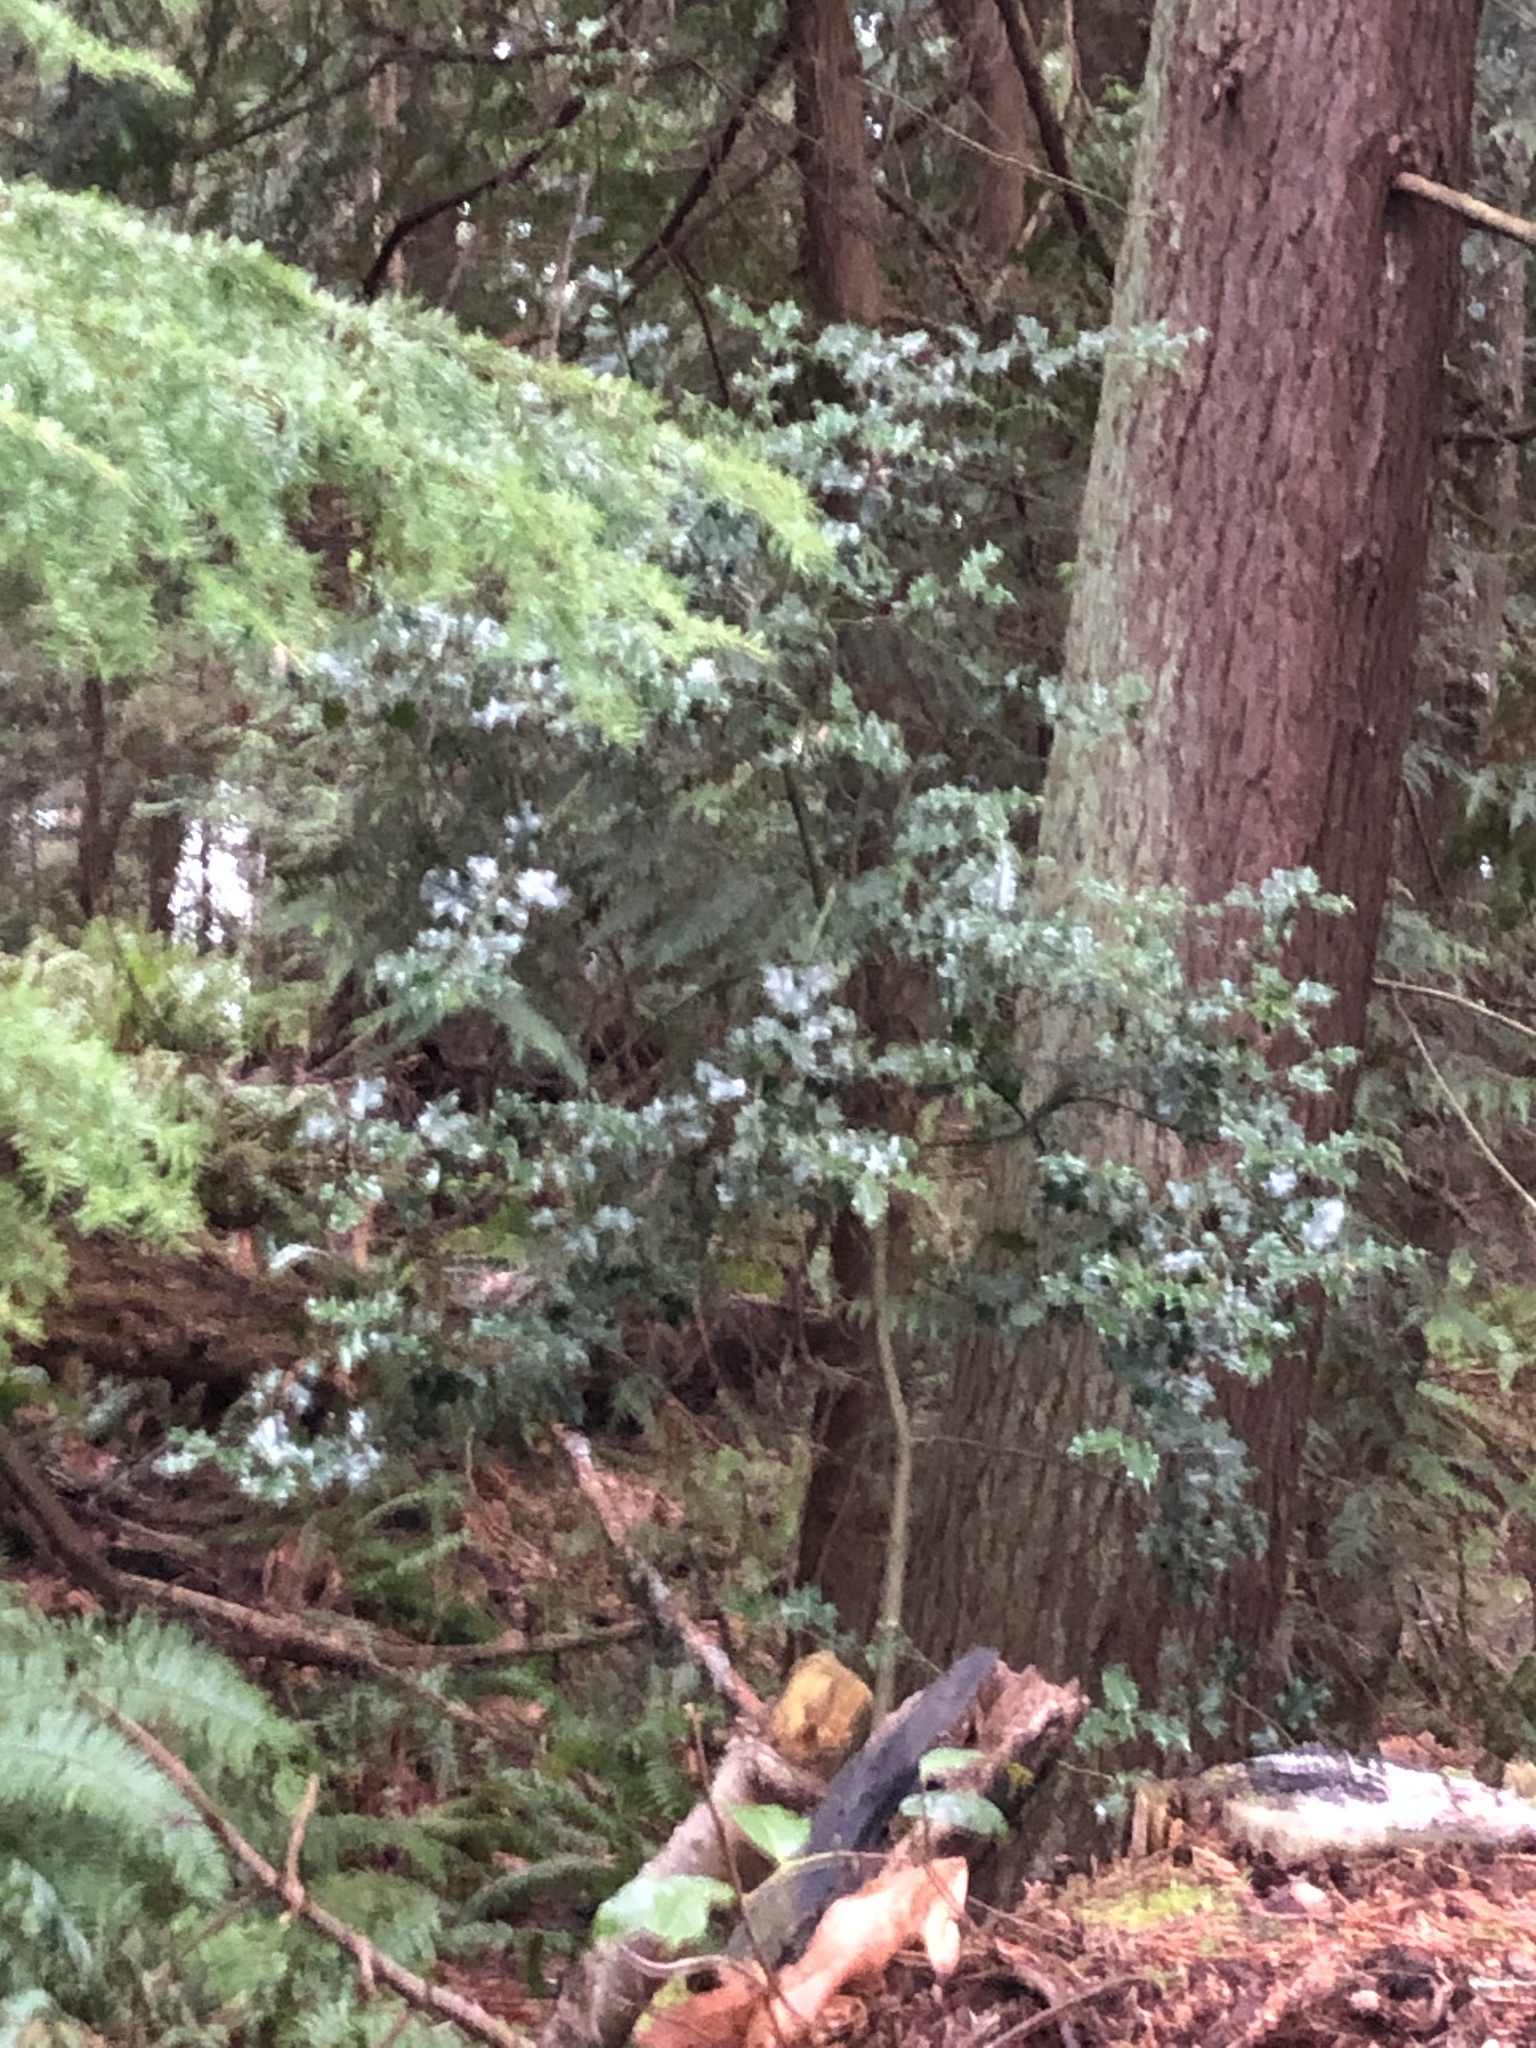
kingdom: Plantae
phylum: Tracheophyta
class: Magnoliopsida
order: Aquifoliales
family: Aquifoliaceae
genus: Ilex
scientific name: Ilex aquifolium
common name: English holly
